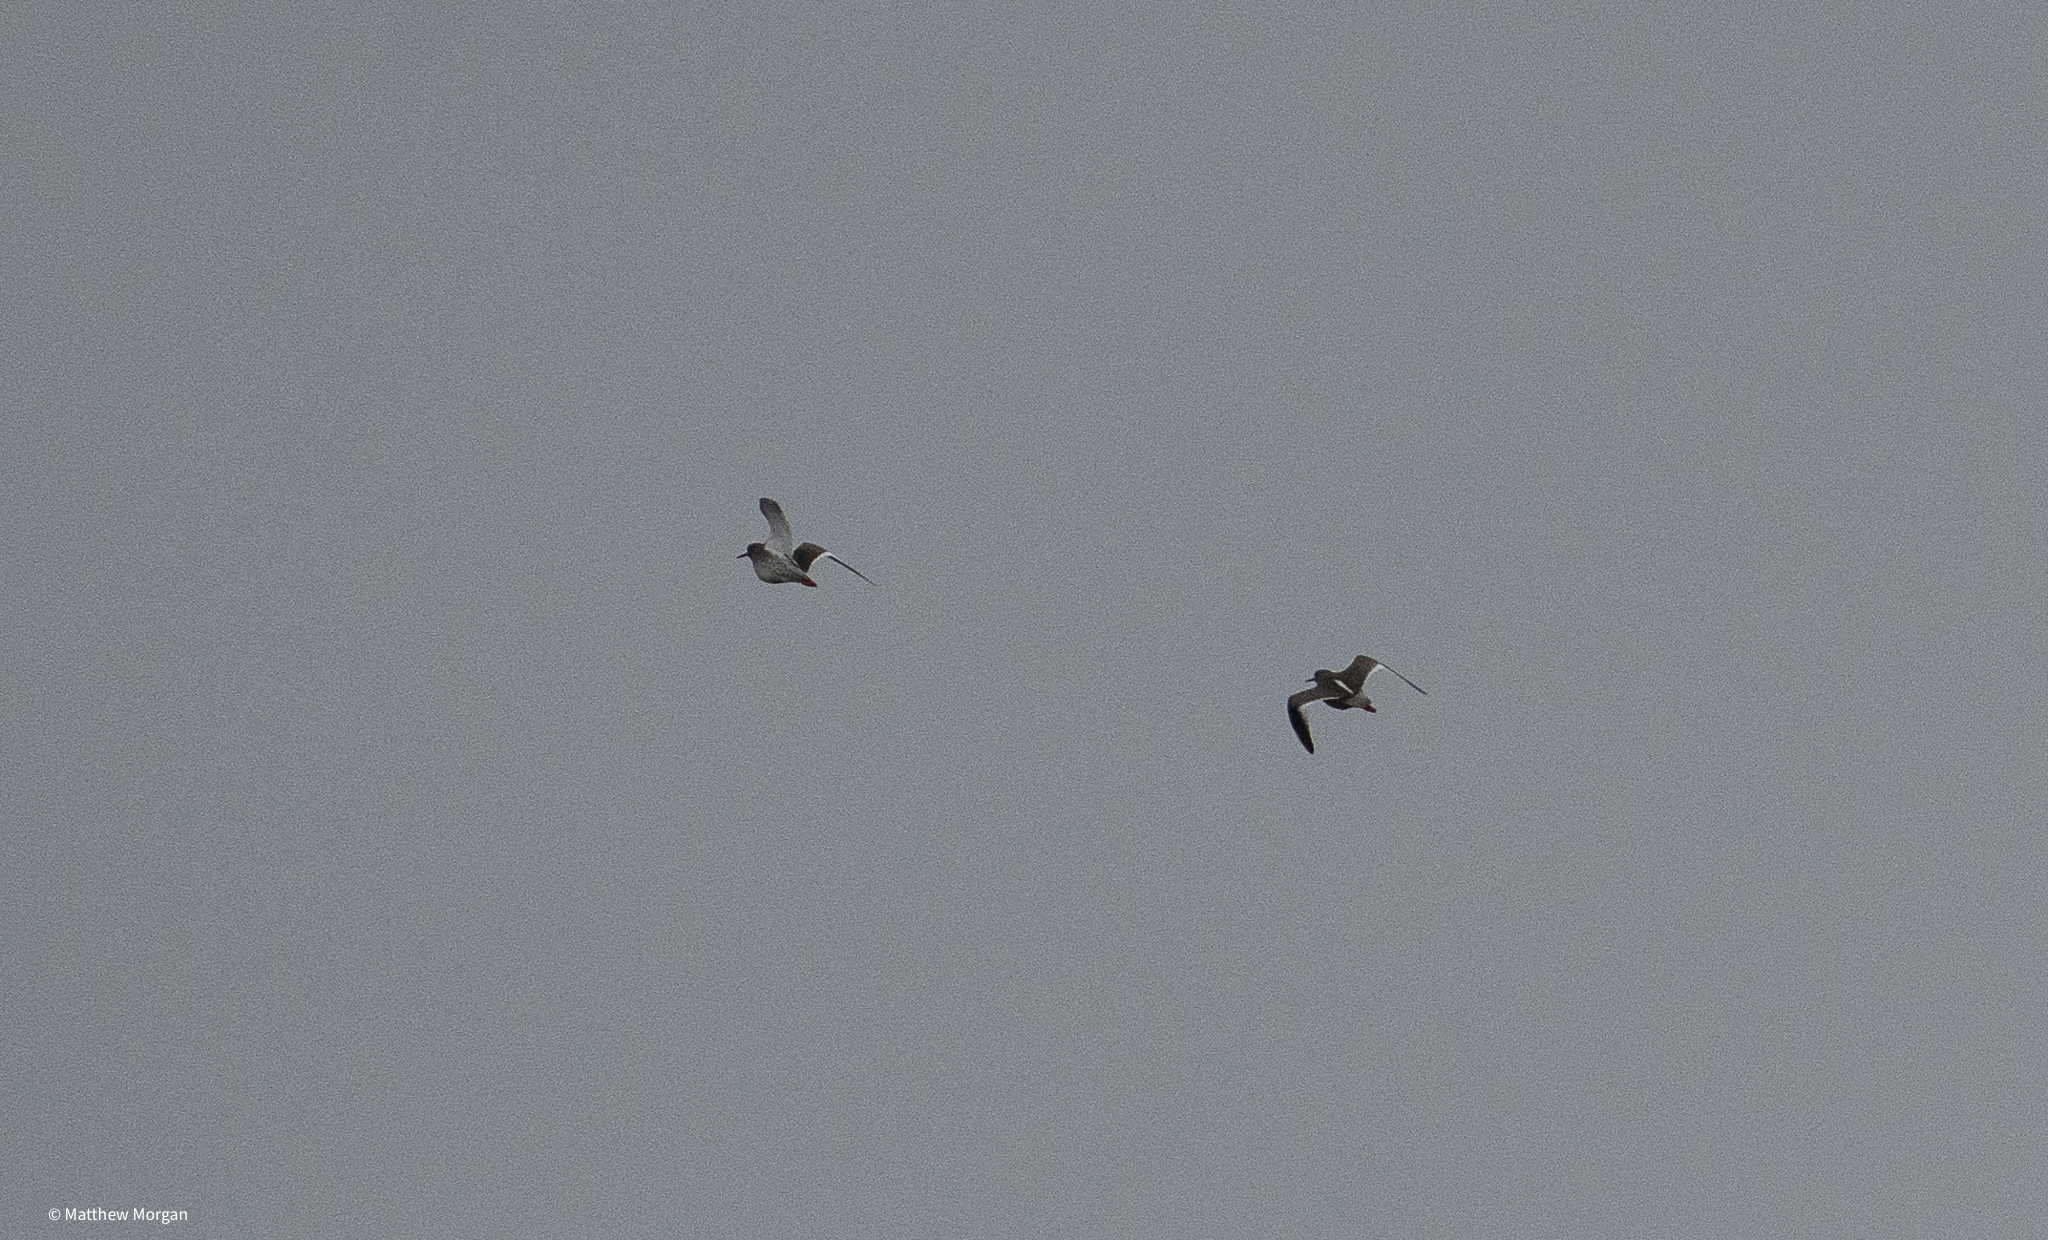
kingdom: Animalia
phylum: Chordata
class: Aves
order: Charadriiformes
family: Scolopacidae
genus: Tringa
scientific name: Tringa totanus
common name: Common redshank
